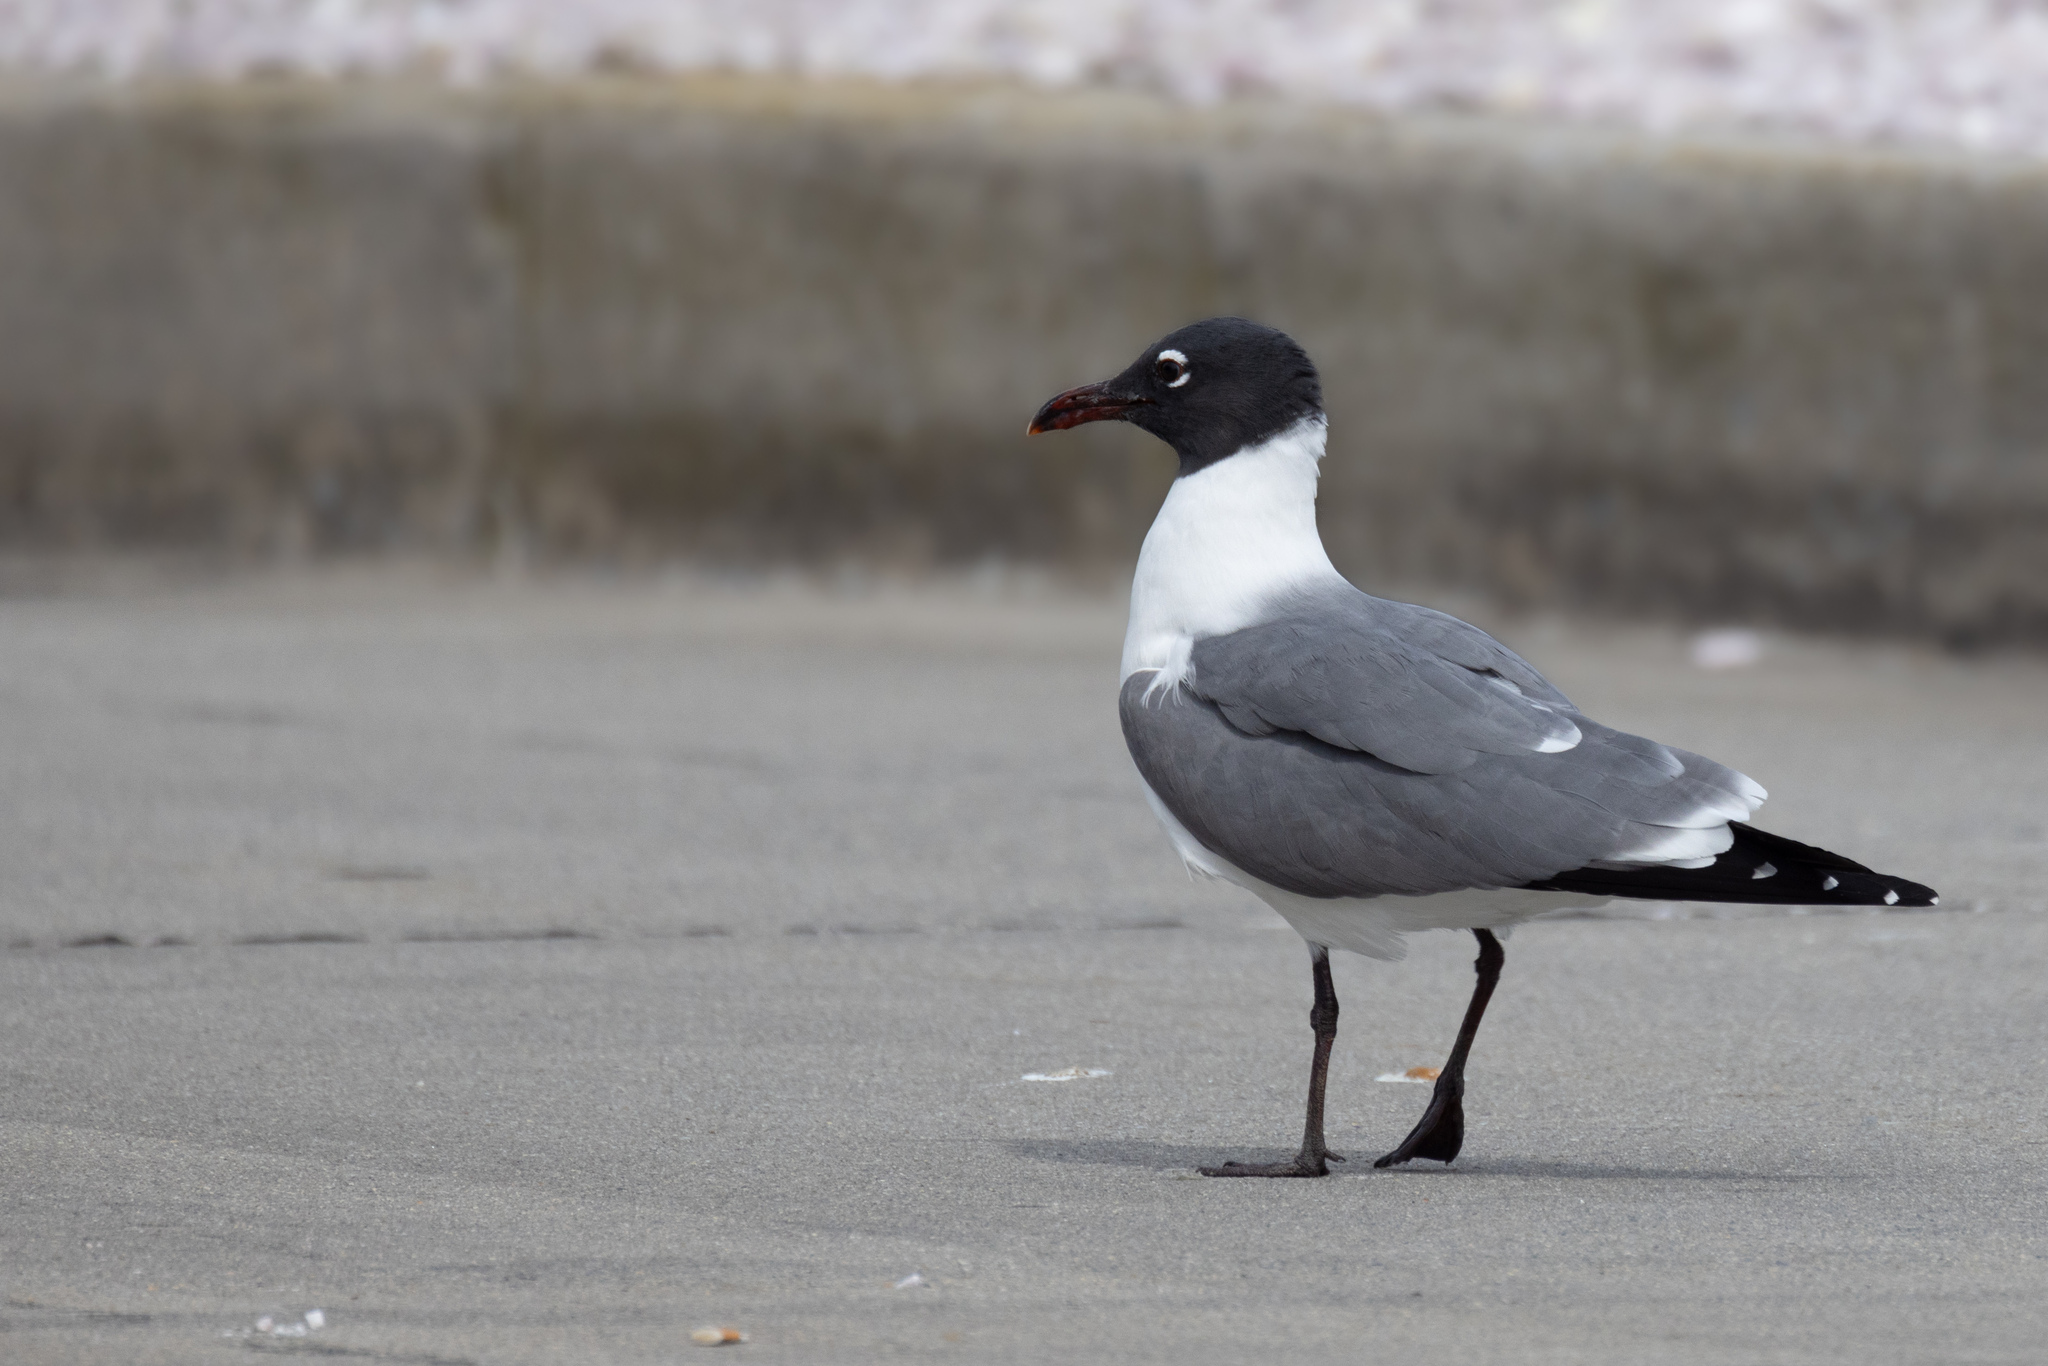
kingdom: Animalia
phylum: Chordata
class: Aves
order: Charadriiformes
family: Laridae
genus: Leucophaeus
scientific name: Leucophaeus atricilla
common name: Laughing gull
